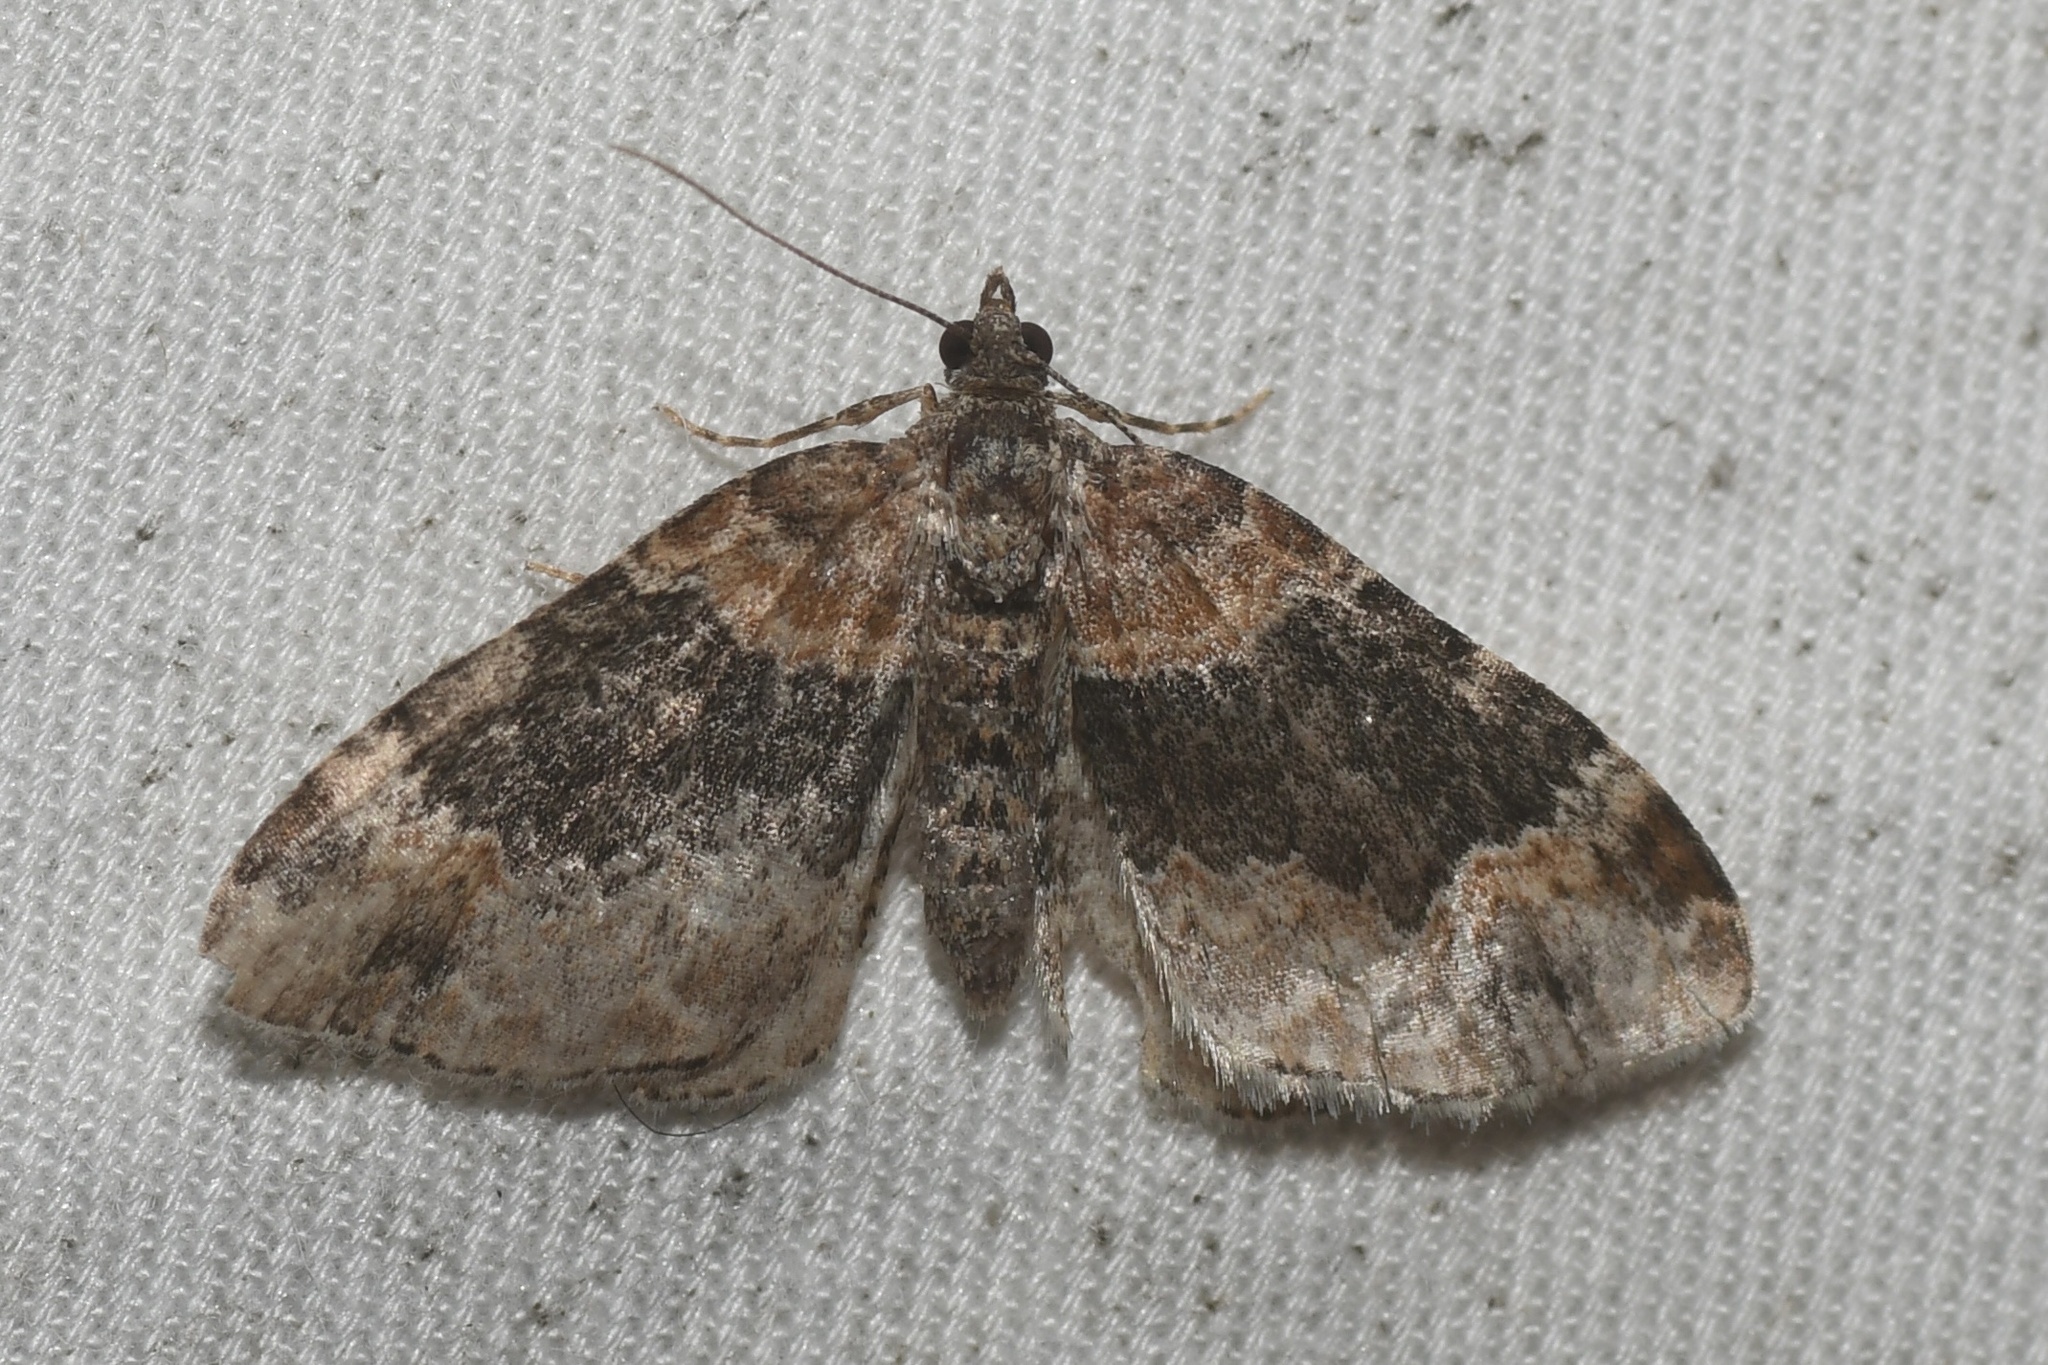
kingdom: Animalia
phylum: Arthropoda
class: Insecta
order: Lepidoptera
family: Geometridae
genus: Xanthorhoe
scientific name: Xanthorhoe ferrugata
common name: Dark-barred twin-spot carpet
